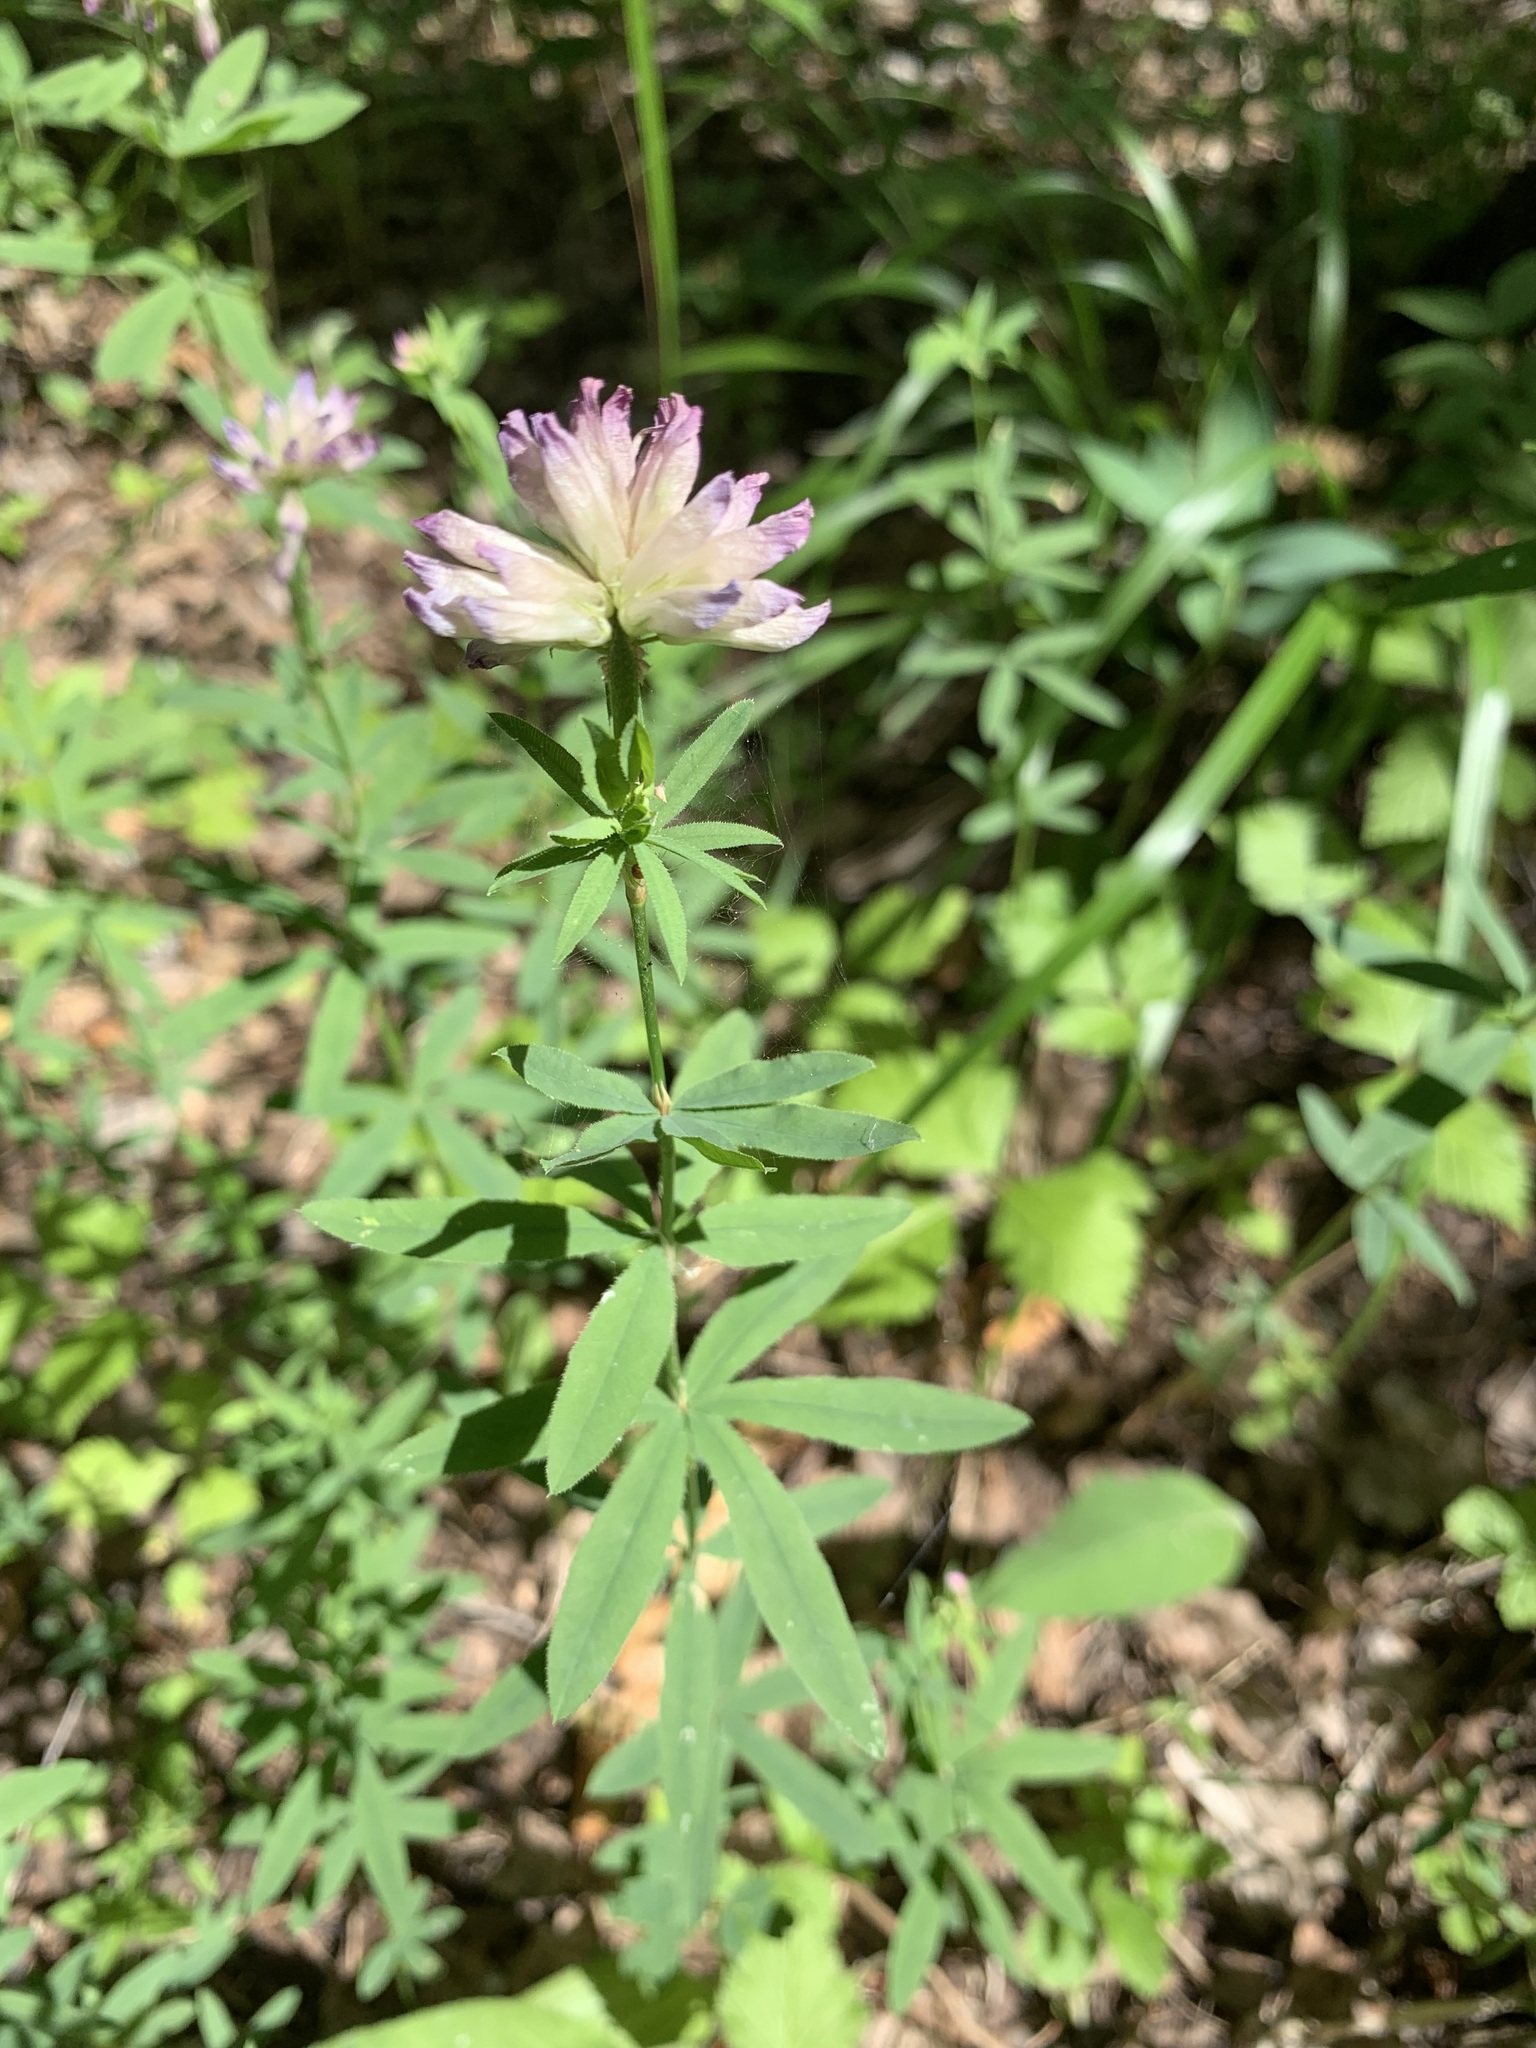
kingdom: Plantae
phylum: Tracheophyta
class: Magnoliopsida
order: Fabales
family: Fabaceae
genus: Trifolium
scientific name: Trifolium lupinaster
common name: Lupine clover
